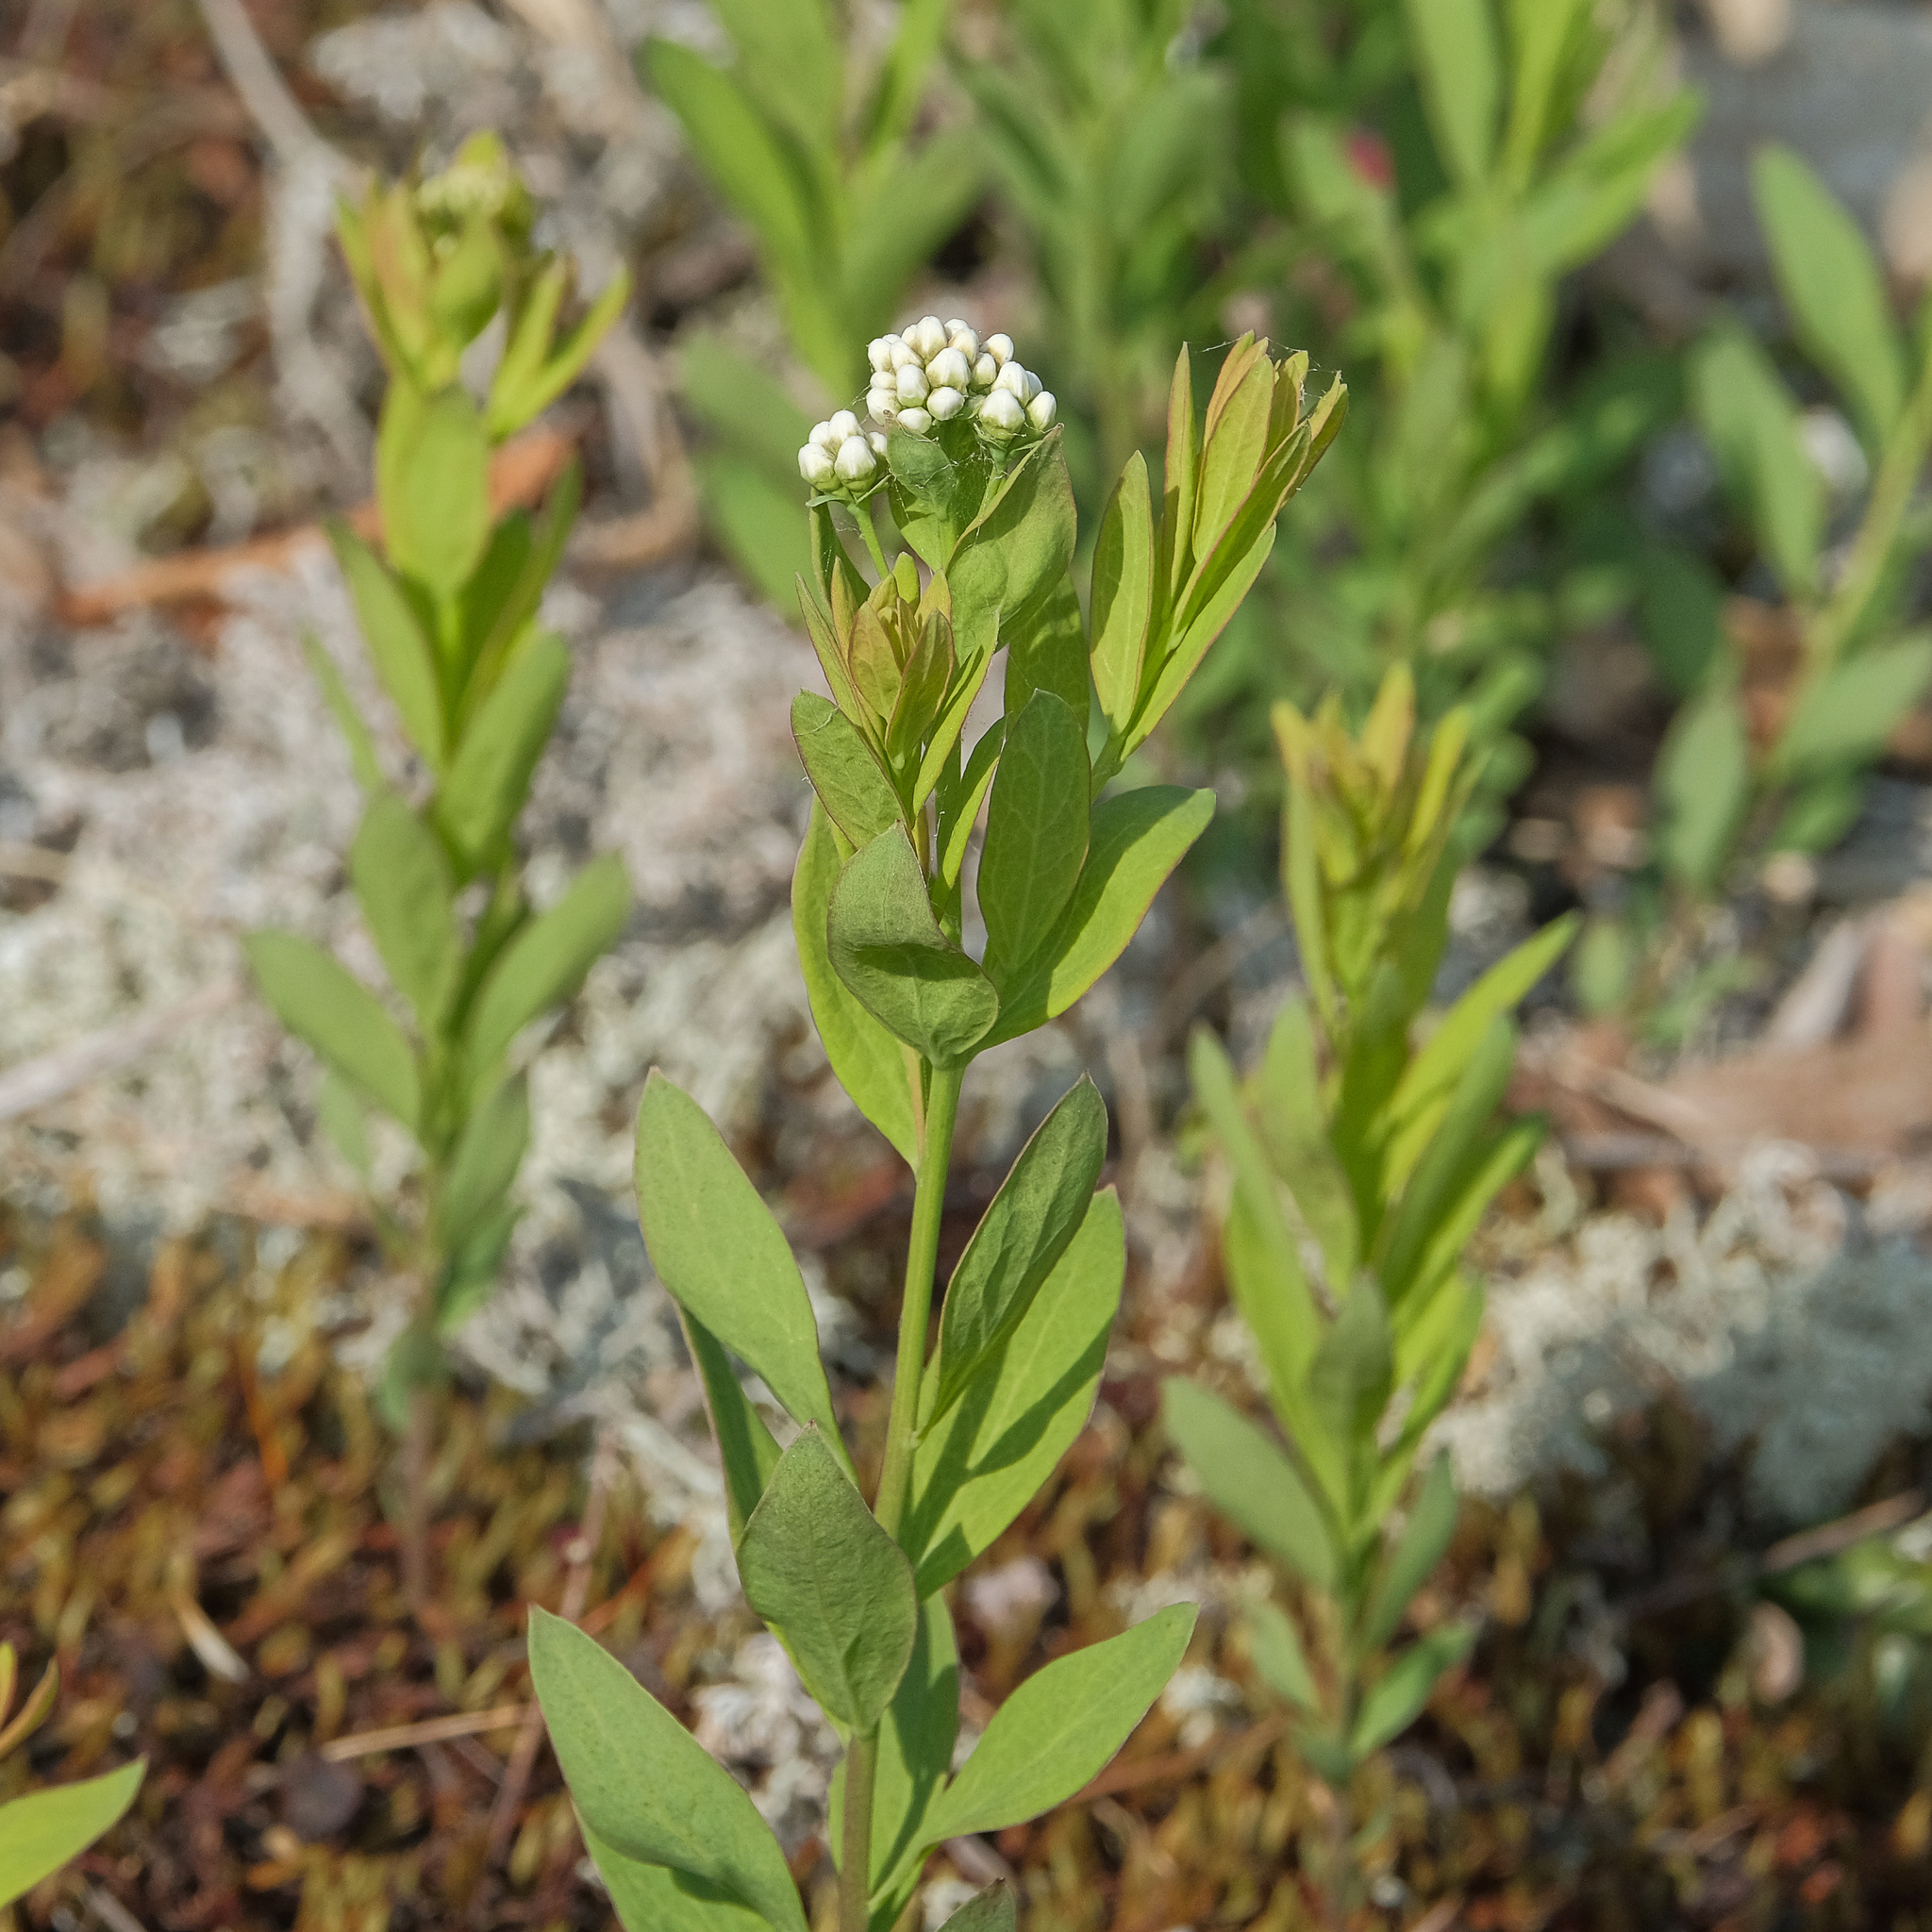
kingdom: Plantae
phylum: Tracheophyta
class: Magnoliopsida
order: Santalales
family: Comandraceae
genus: Comandra
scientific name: Comandra umbellata
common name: Bastard toadflax
